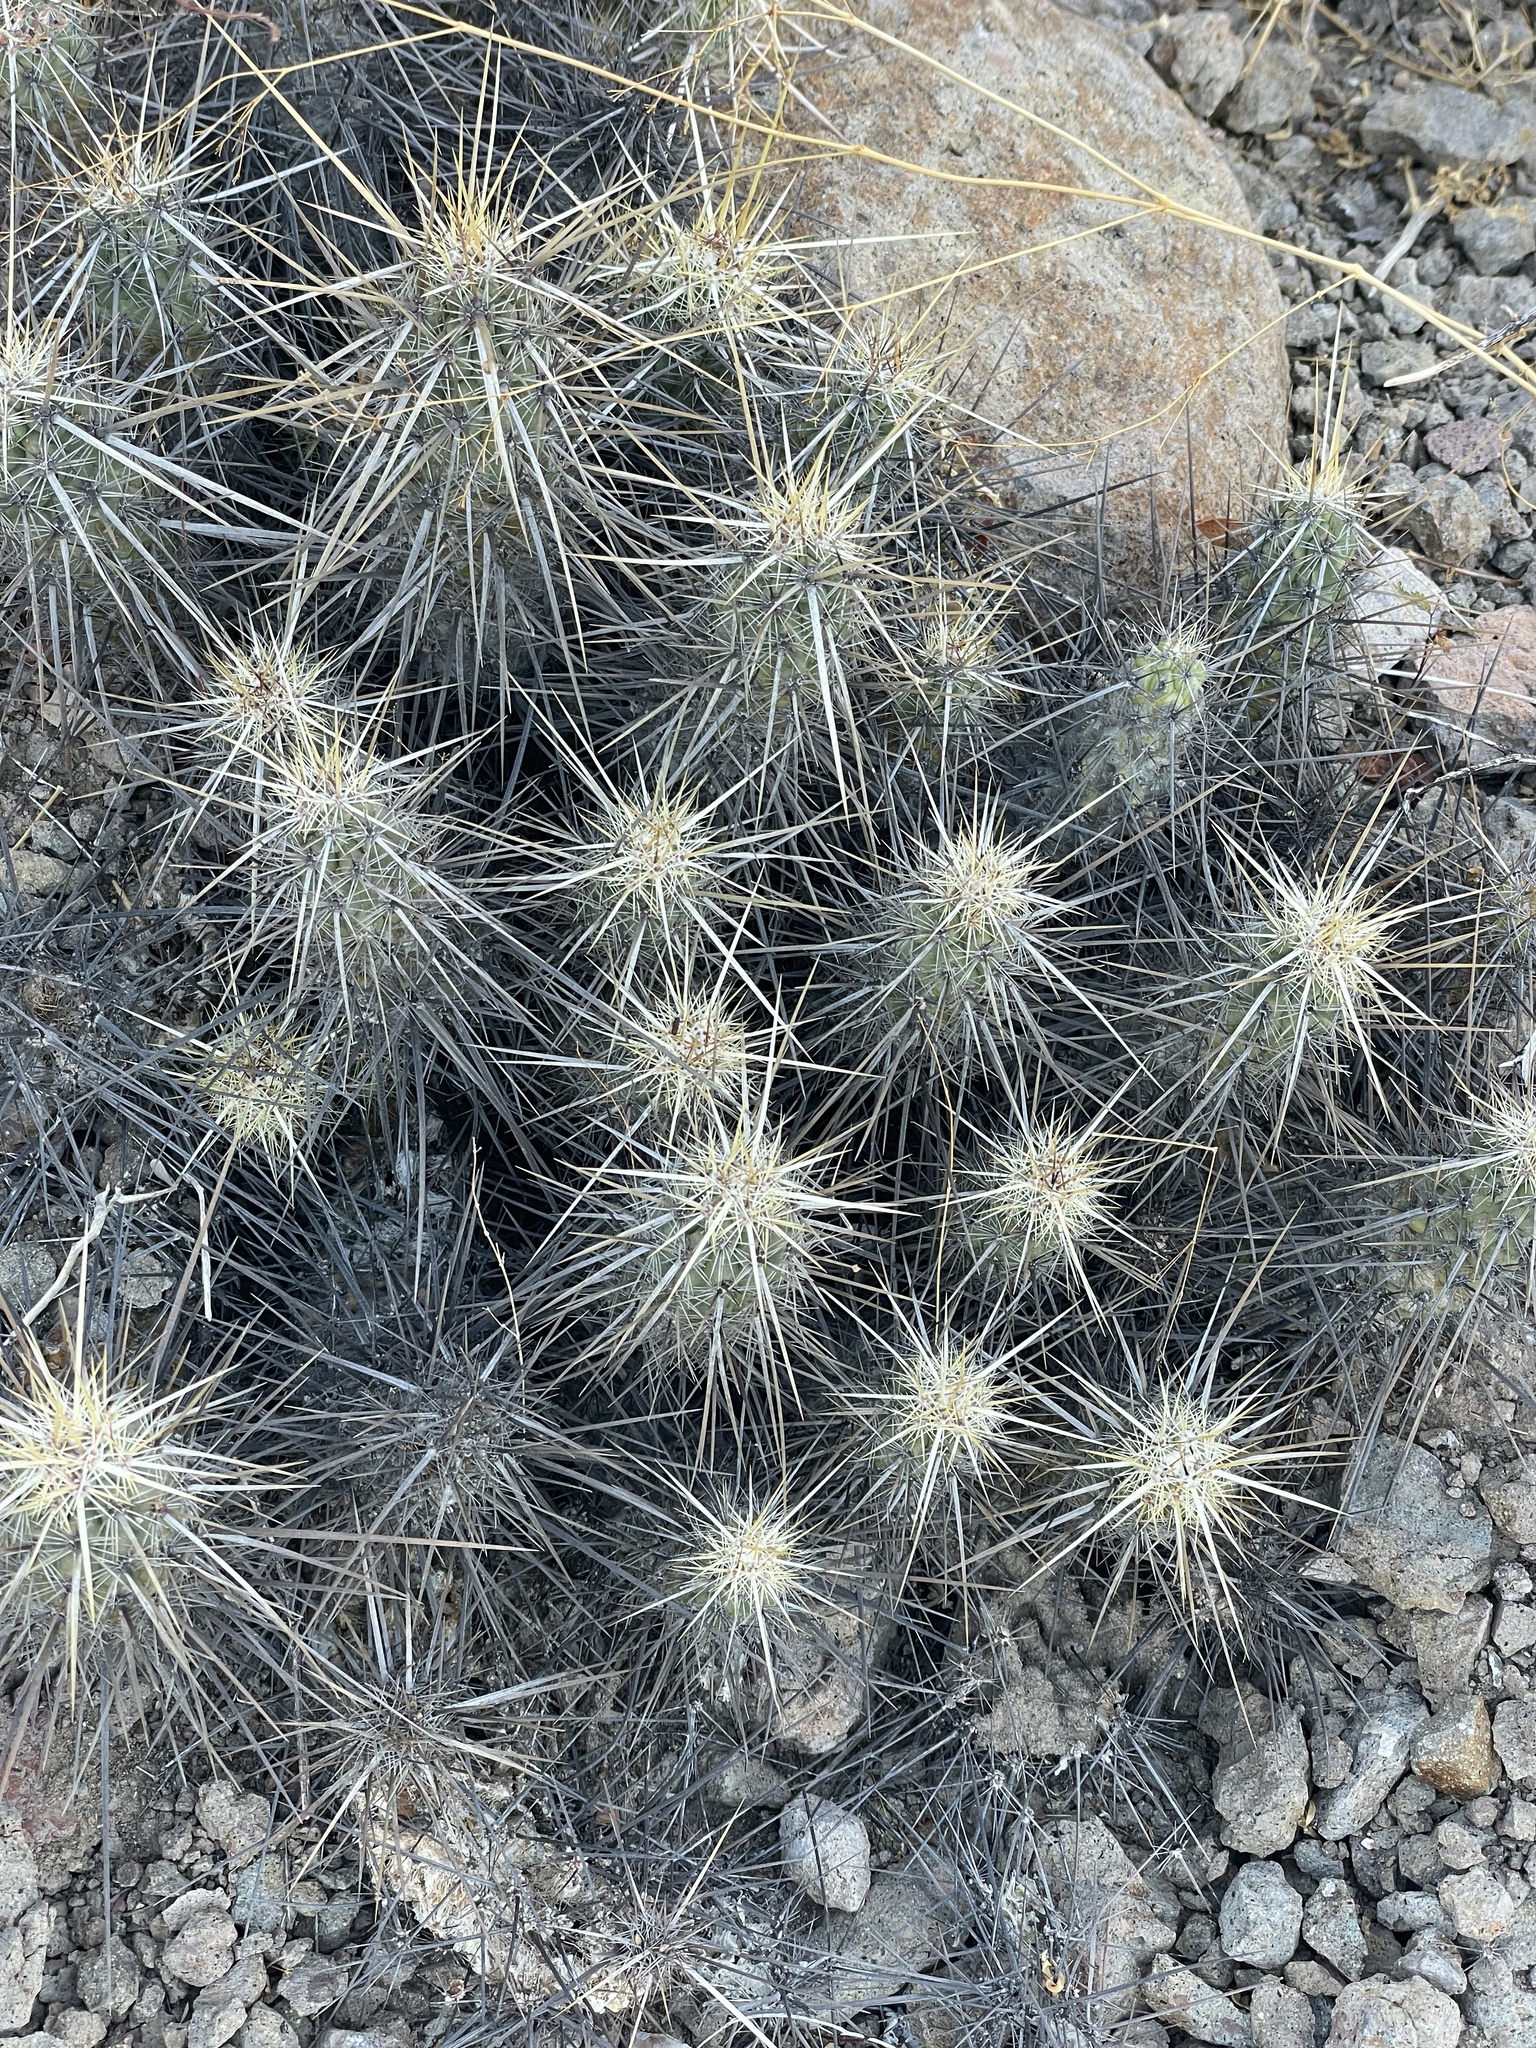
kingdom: Plantae
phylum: Tracheophyta
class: Magnoliopsida
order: Caryophyllales
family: Cactaceae
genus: Echinocereus
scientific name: Echinocereus brandegeei
